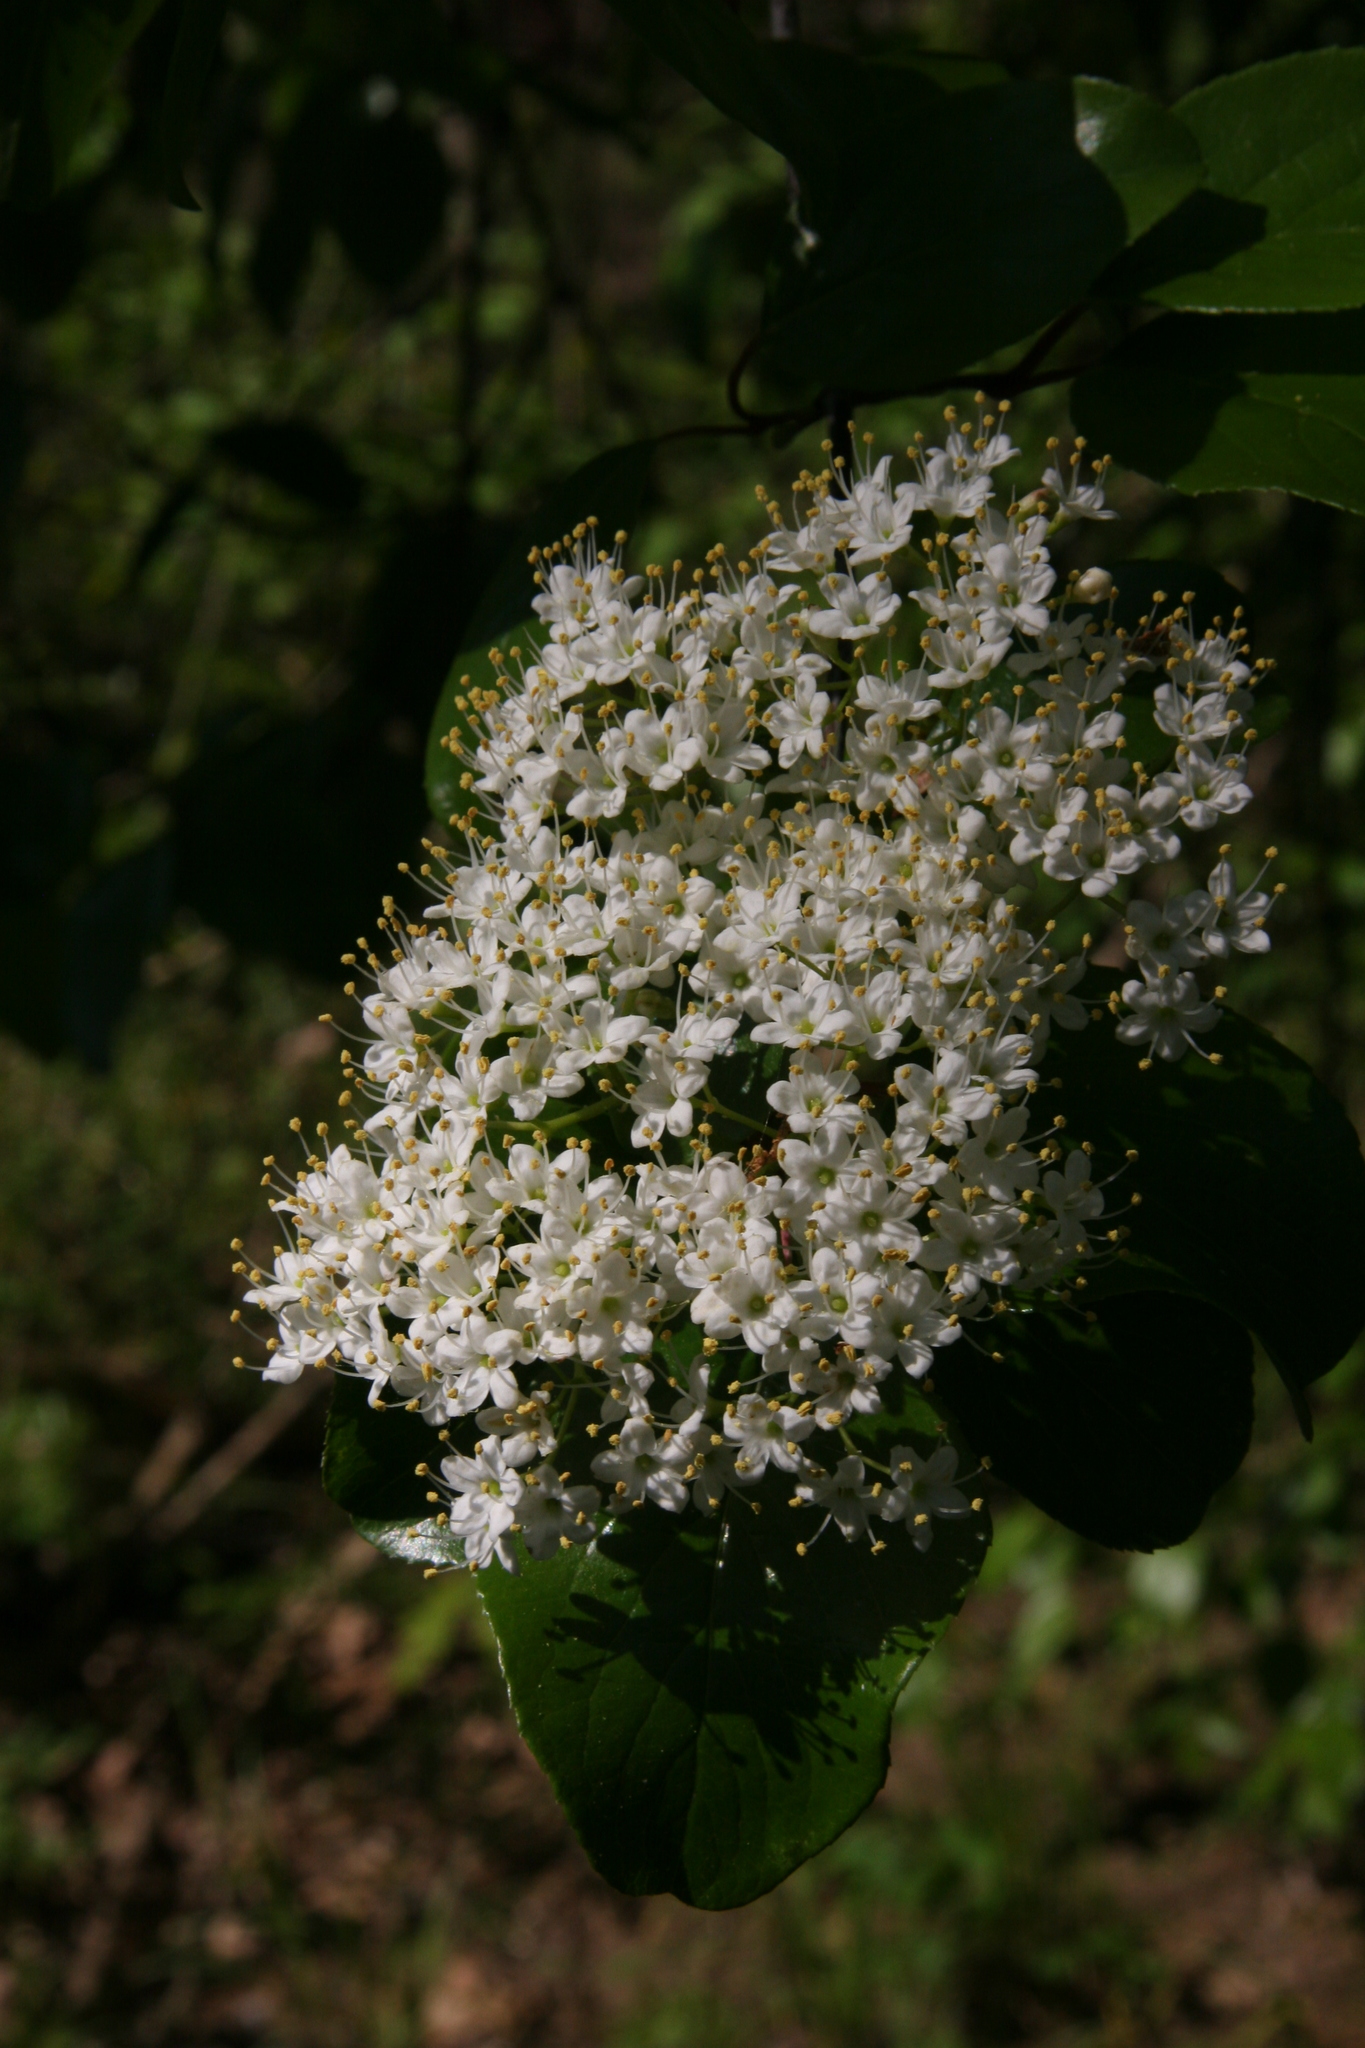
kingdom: Plantae
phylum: Tracheophyta
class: Magnoliopsida
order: Dipsacales
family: Viburnaceae
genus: Viburnum
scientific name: Viburnum rufidulum
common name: Blue haw
